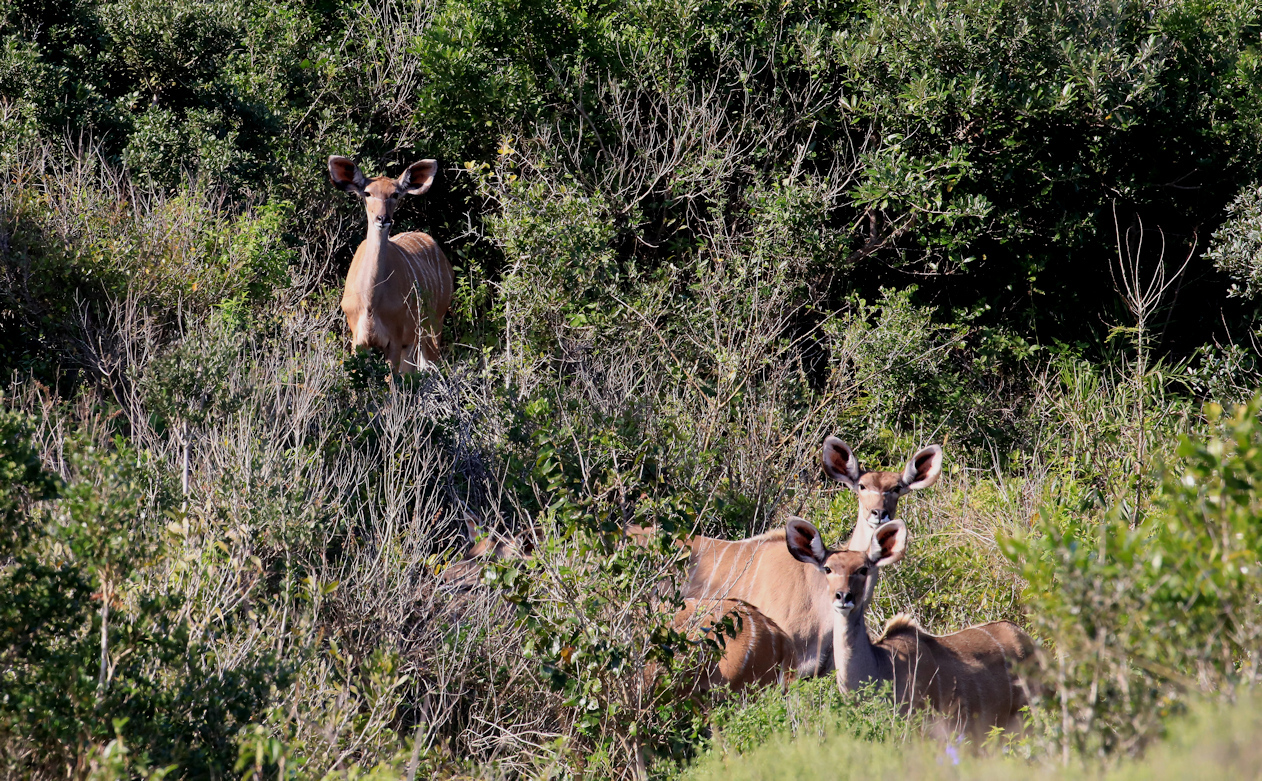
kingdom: Animalia
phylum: Chordata
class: Mammalia
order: Artiodactyla
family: Bovidae
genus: Tragelaphus
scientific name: Tragelaphus strepsiceros
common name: Greater kudu
